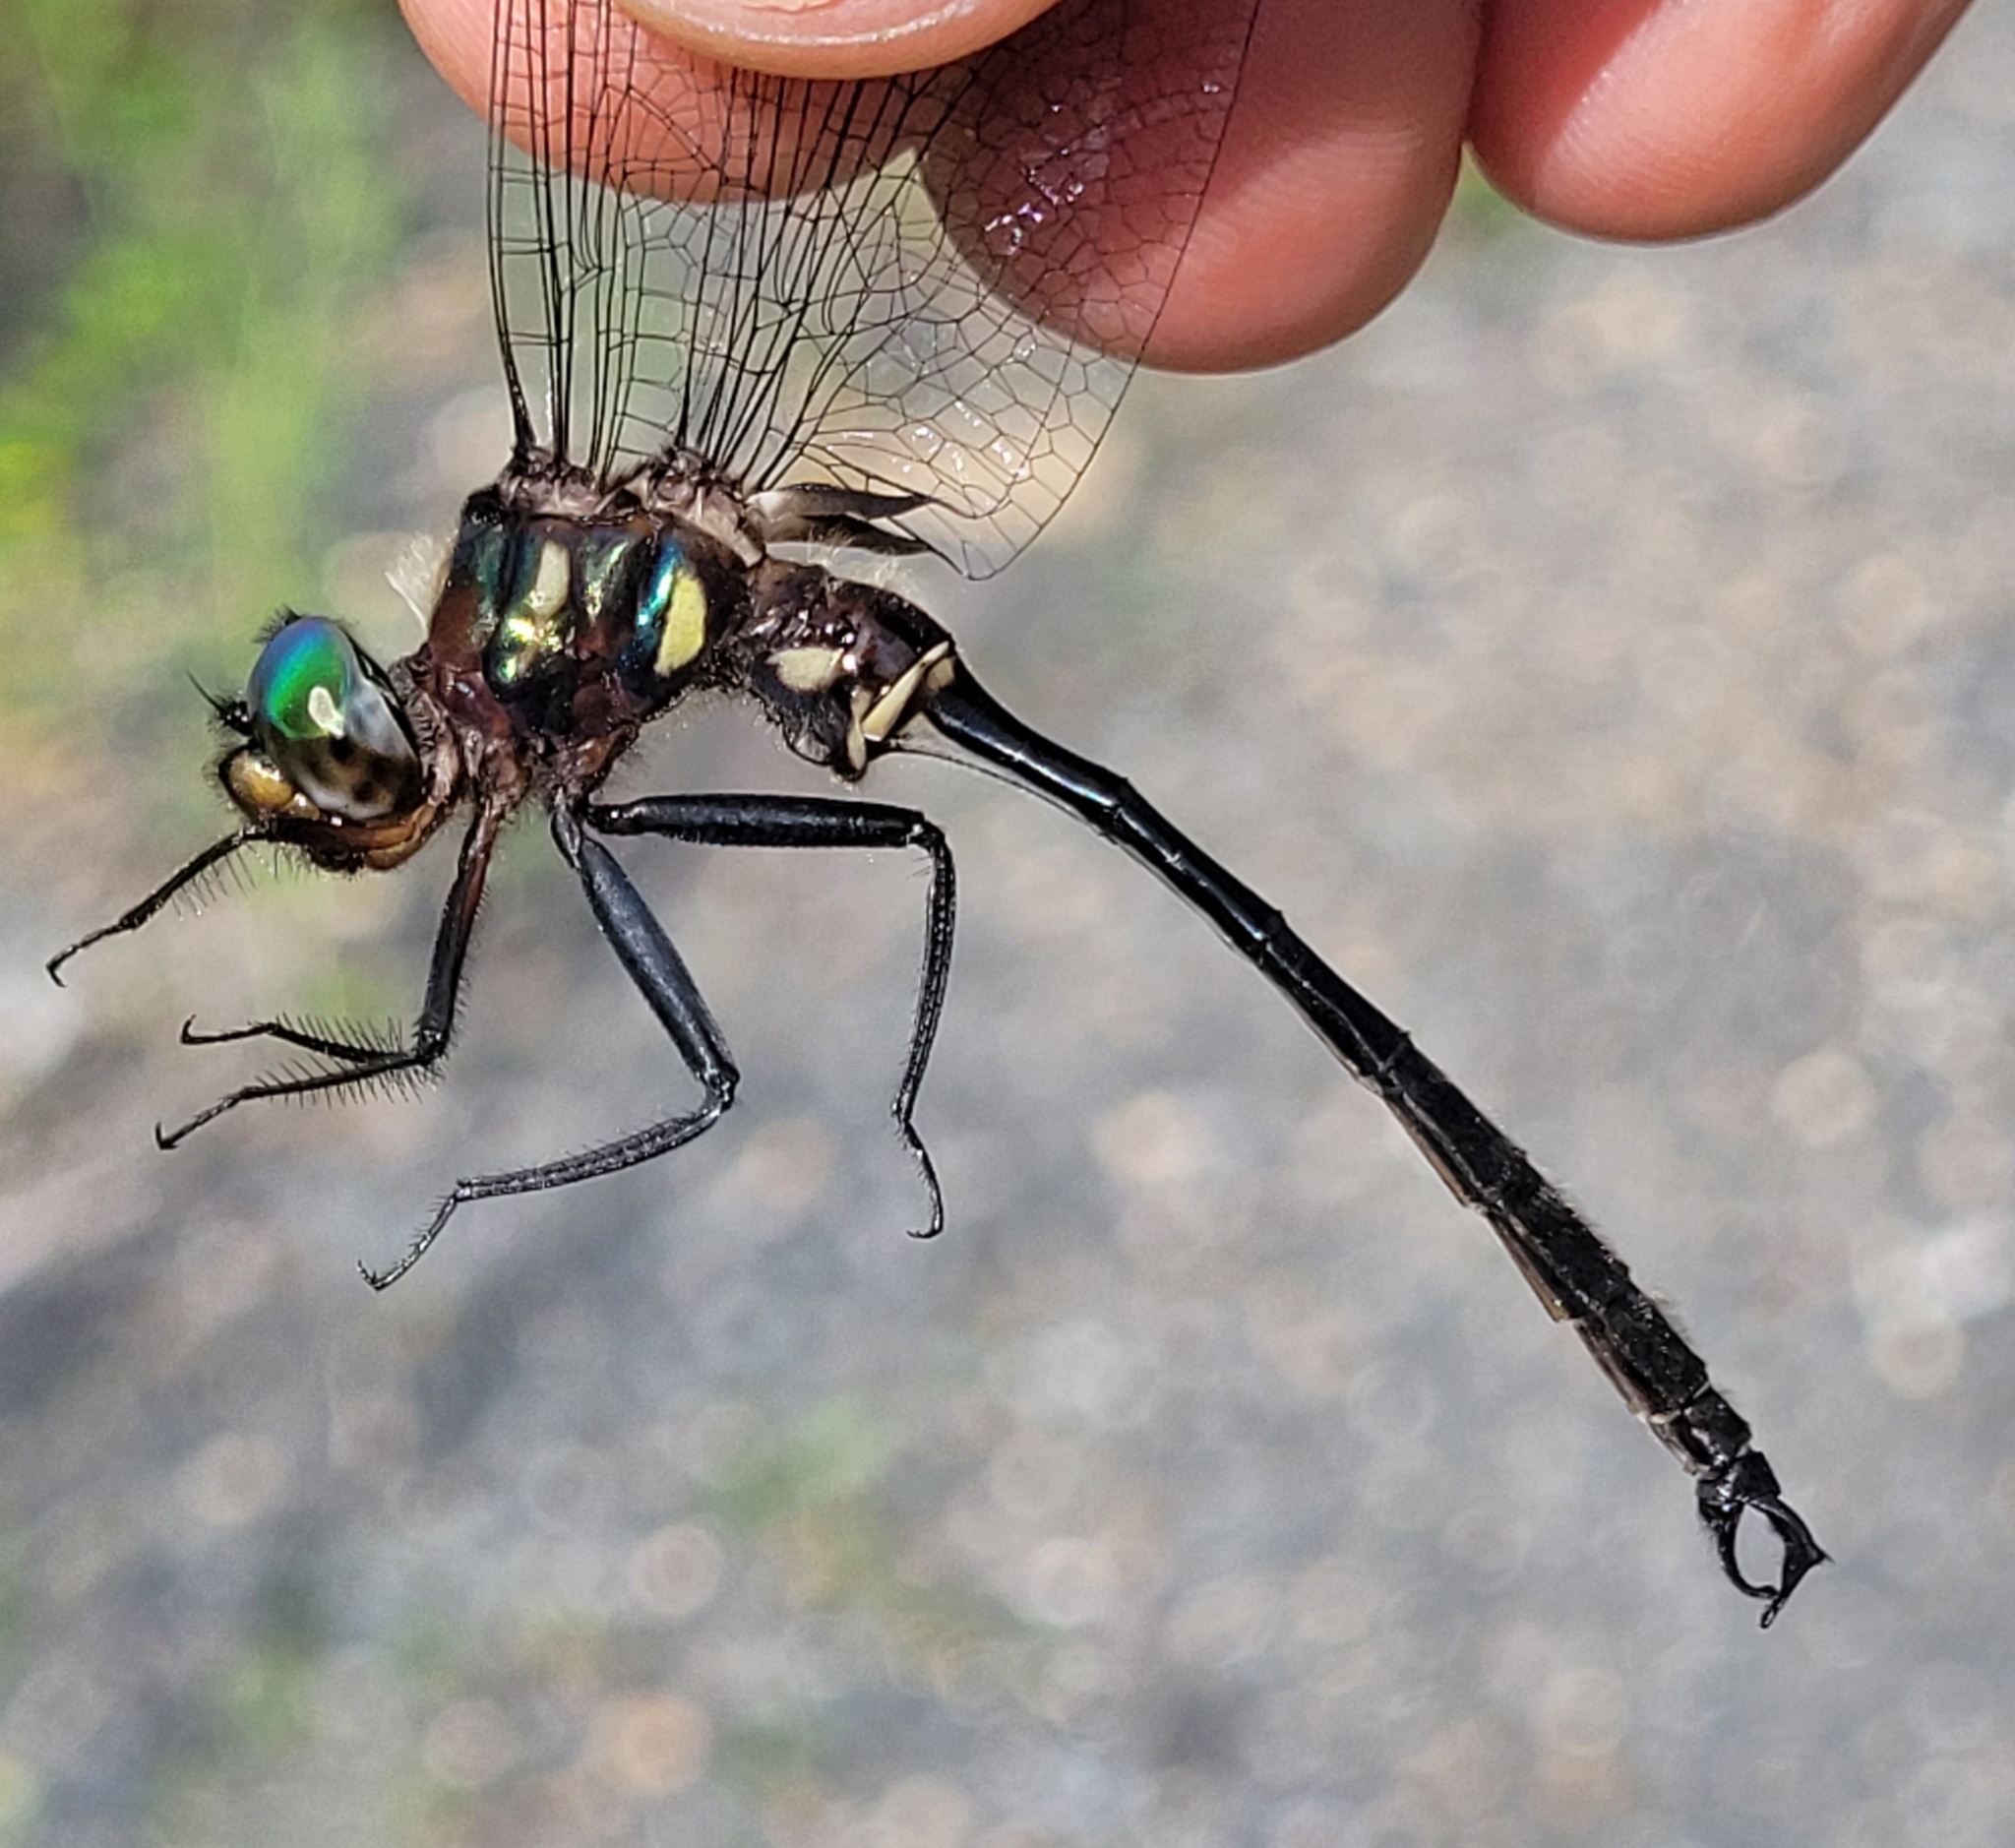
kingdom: Animalia
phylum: Arthropoda
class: Insecta
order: Odonata
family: Corduliidae
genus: Somatochlora
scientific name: Somatochlora tenebrosa
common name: Clamp-tipped emerald
